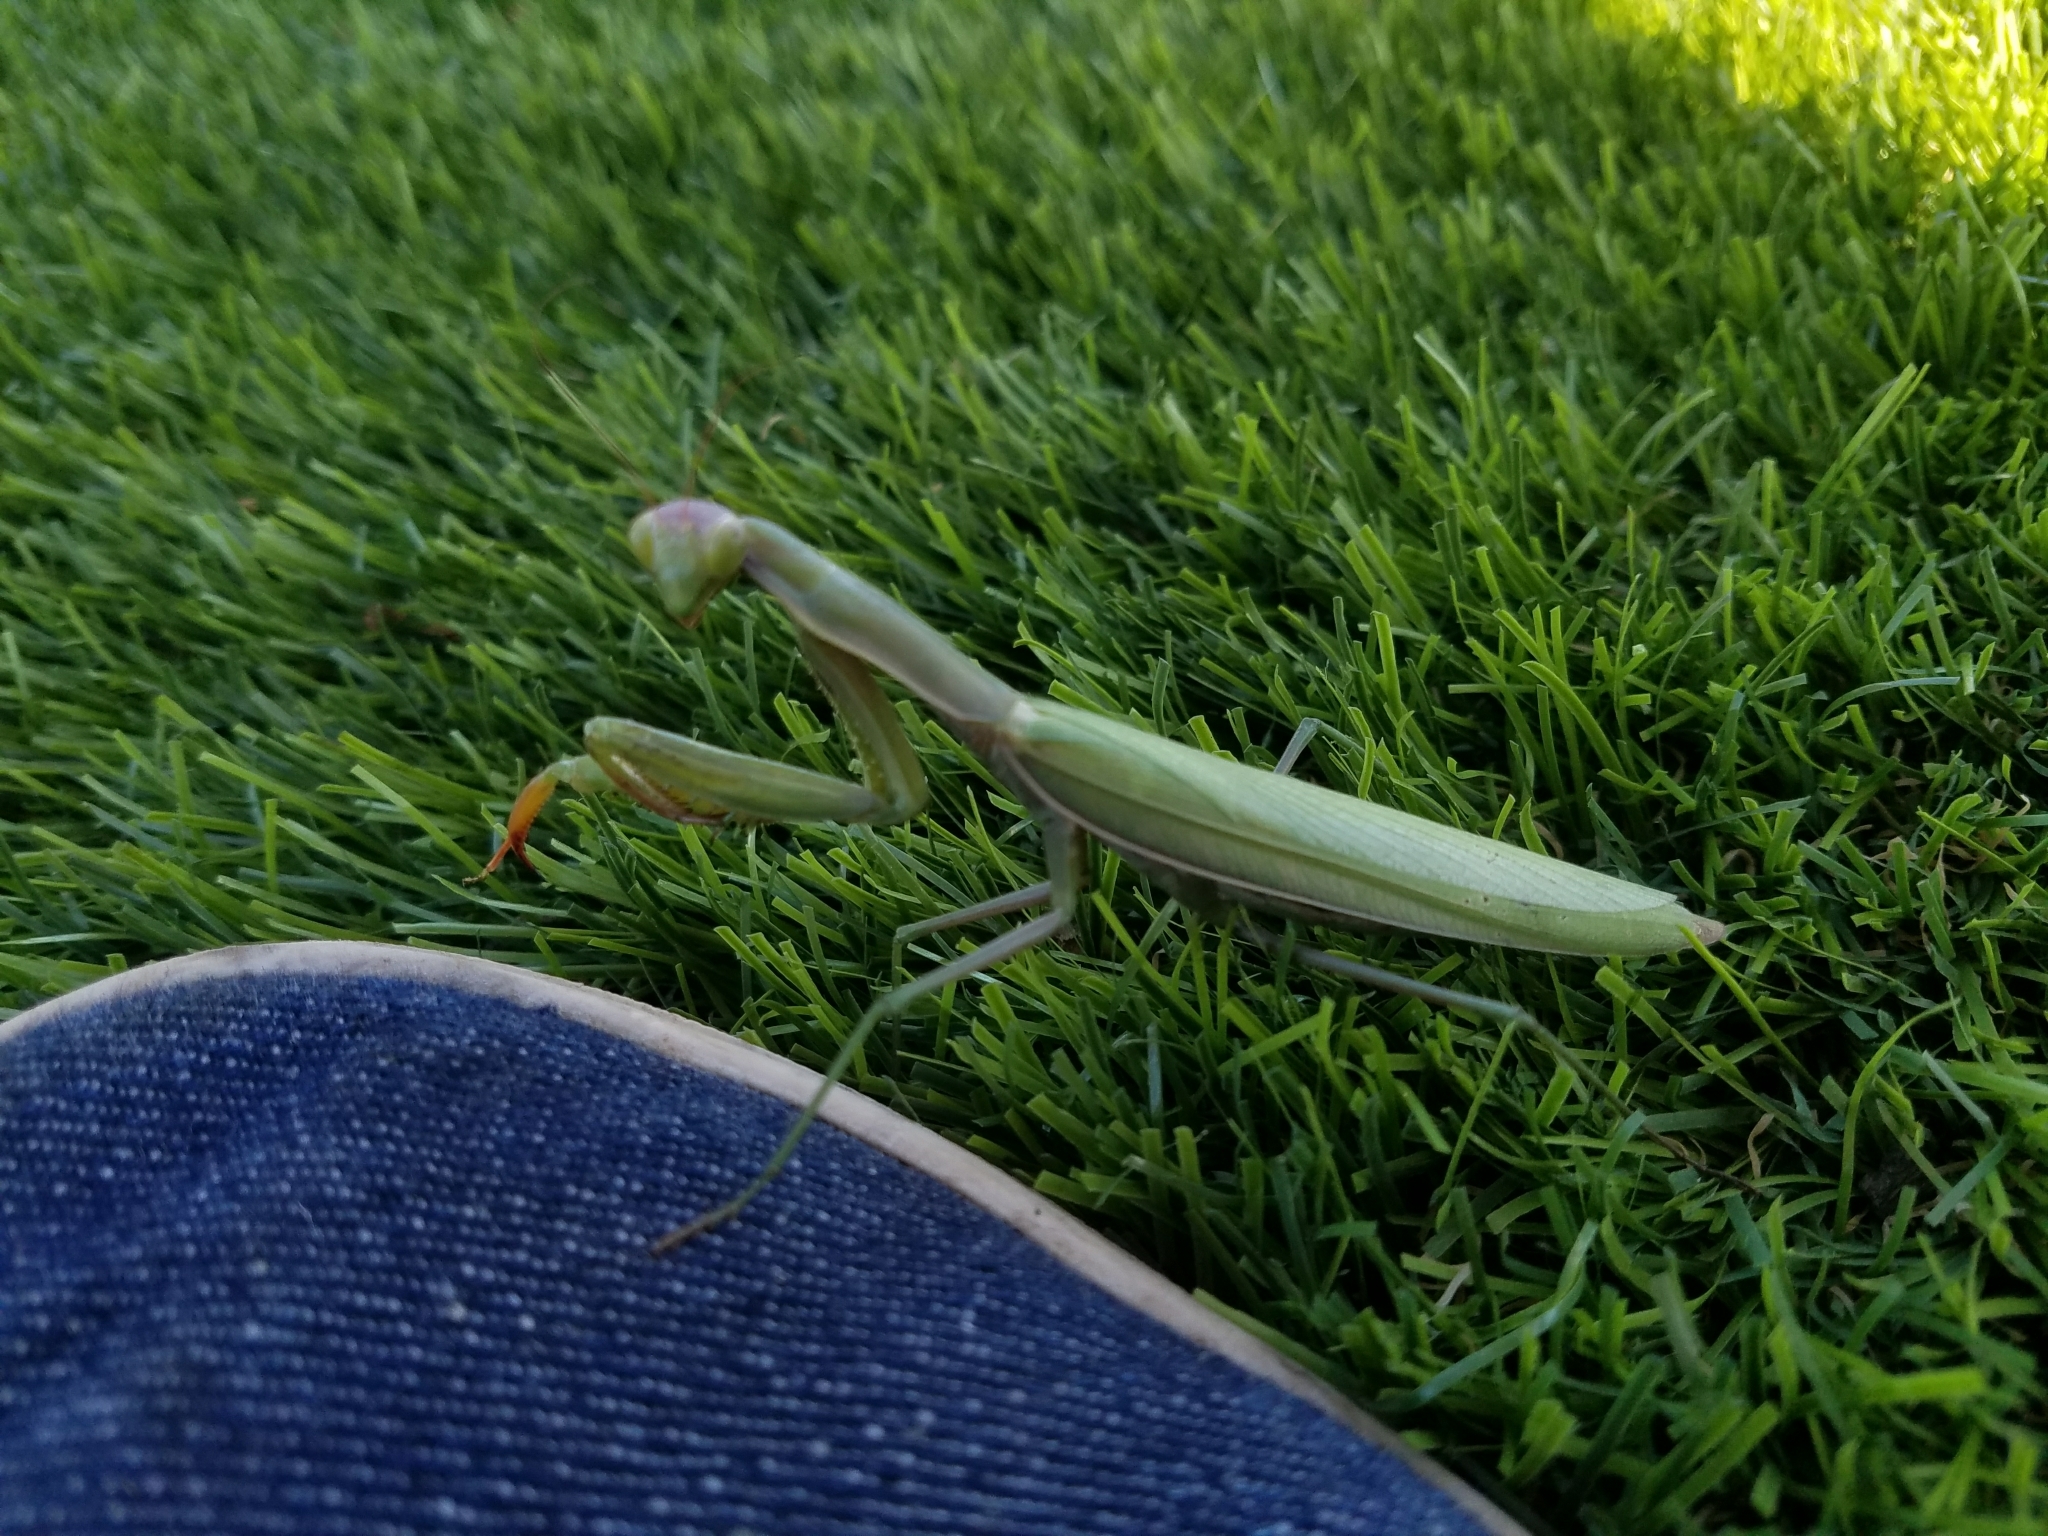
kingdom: Animalia
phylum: Arthropoda
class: Insecta
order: Mantodea
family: Mantidae
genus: Mantis
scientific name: Mantis religiosa
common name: Praying mantis
